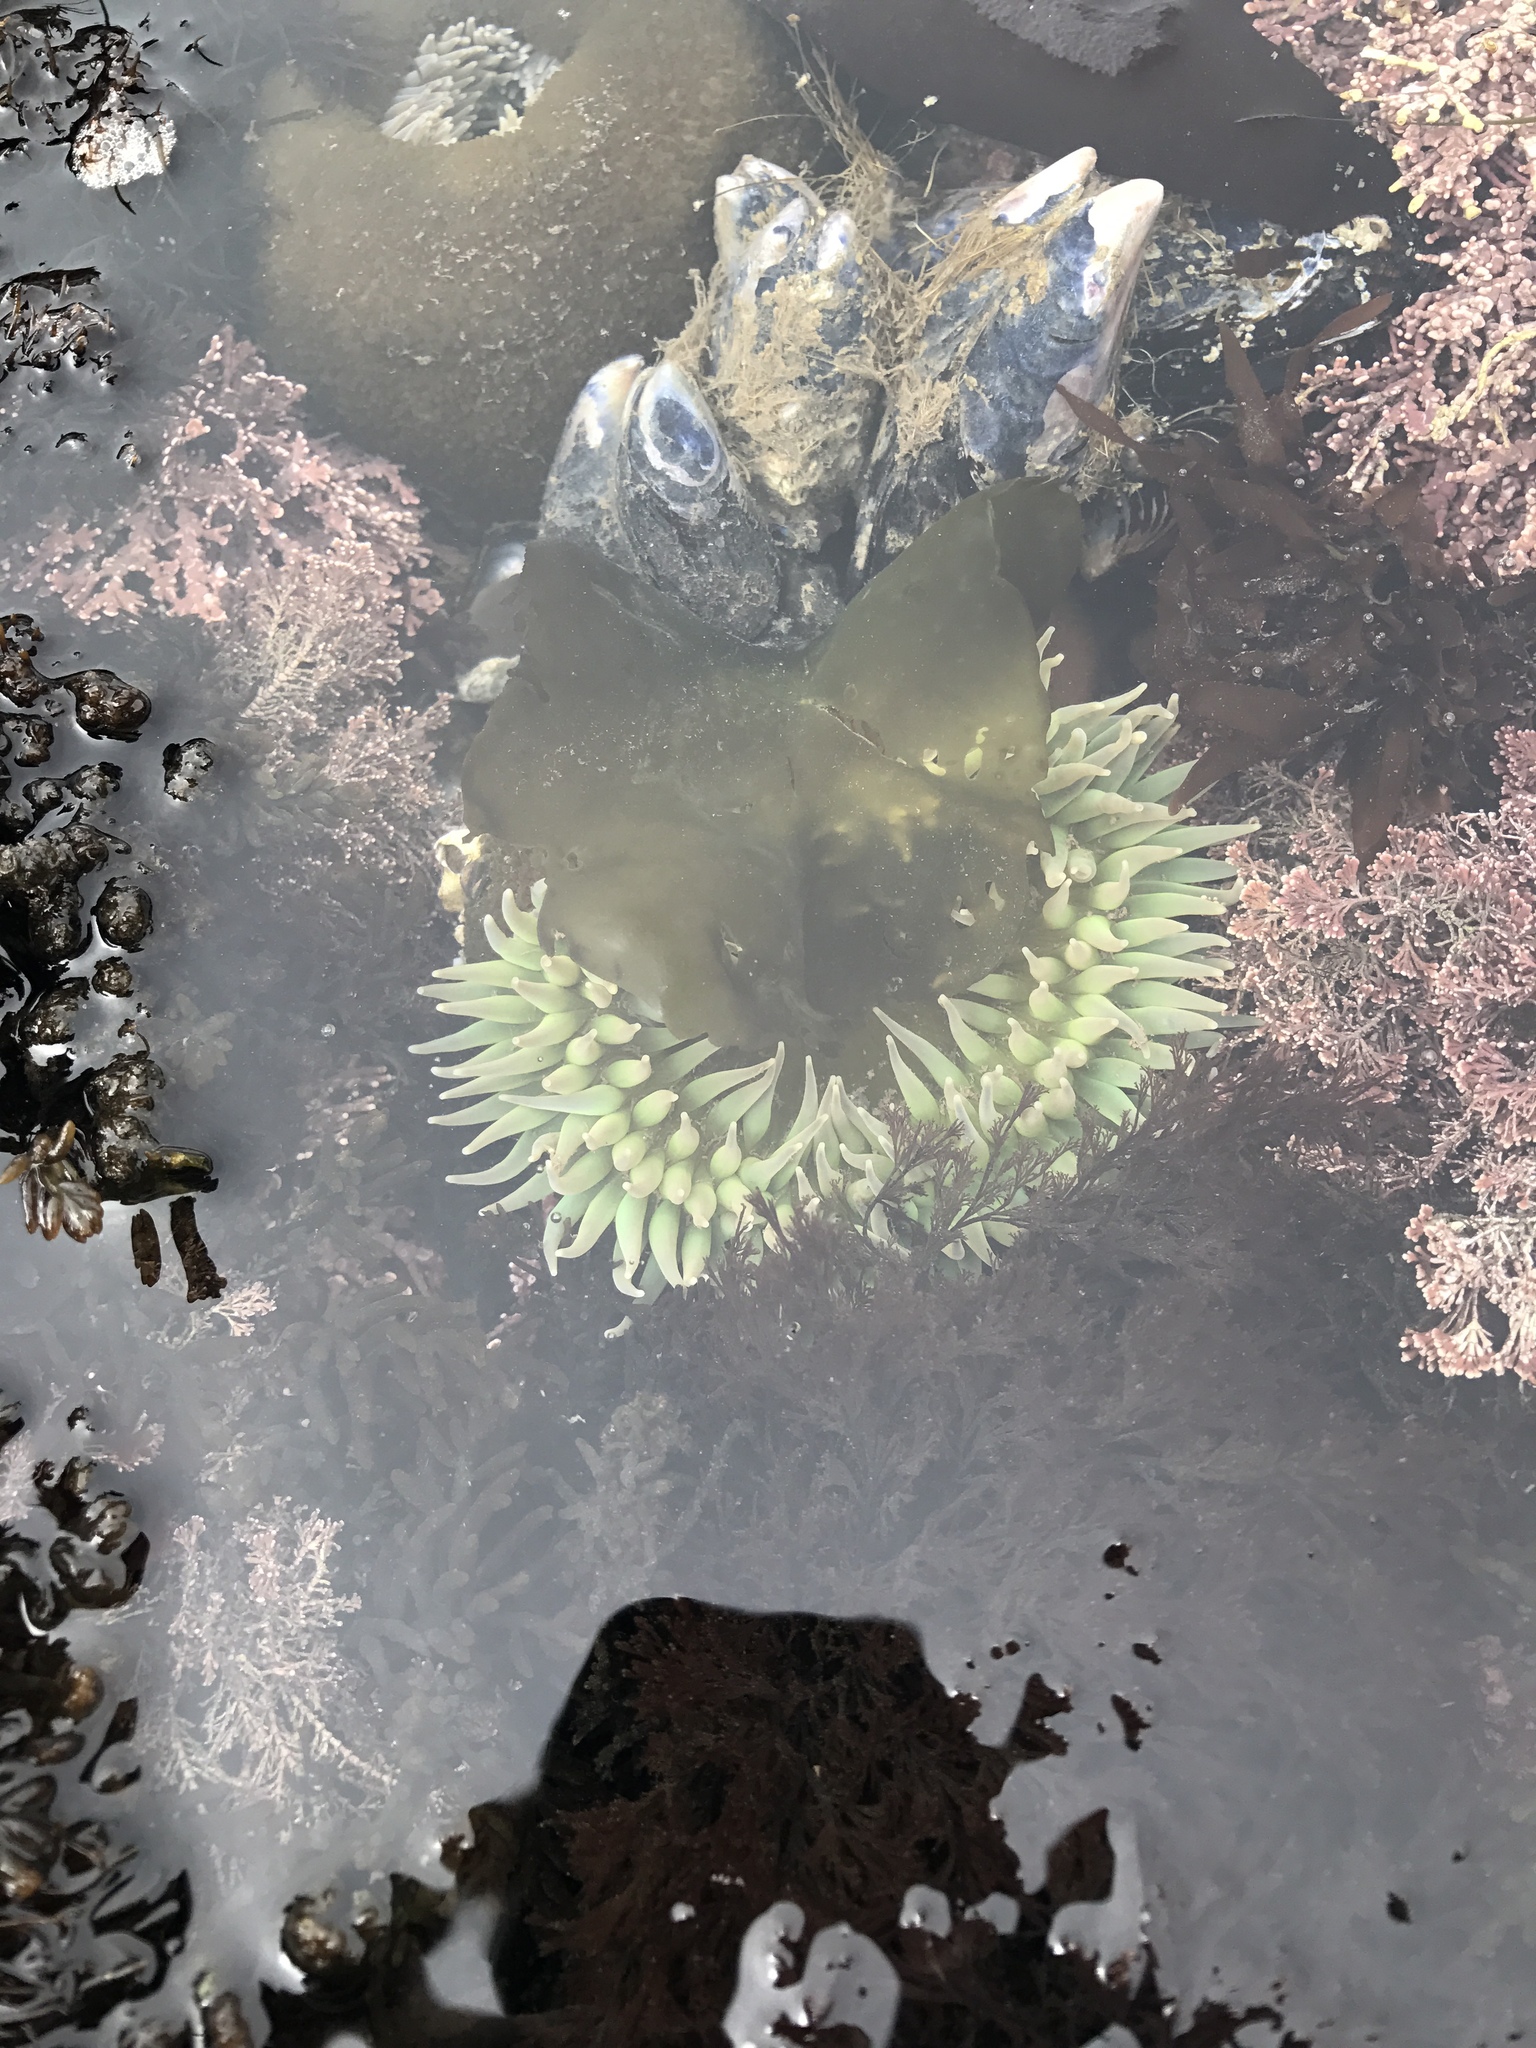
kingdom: Animalia
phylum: Cnidaria
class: Anthozoa
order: Actiniaria
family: Actiniidae
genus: Anthopleura
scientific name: Anthopleura xanthogrammica
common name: Giant green anemone
